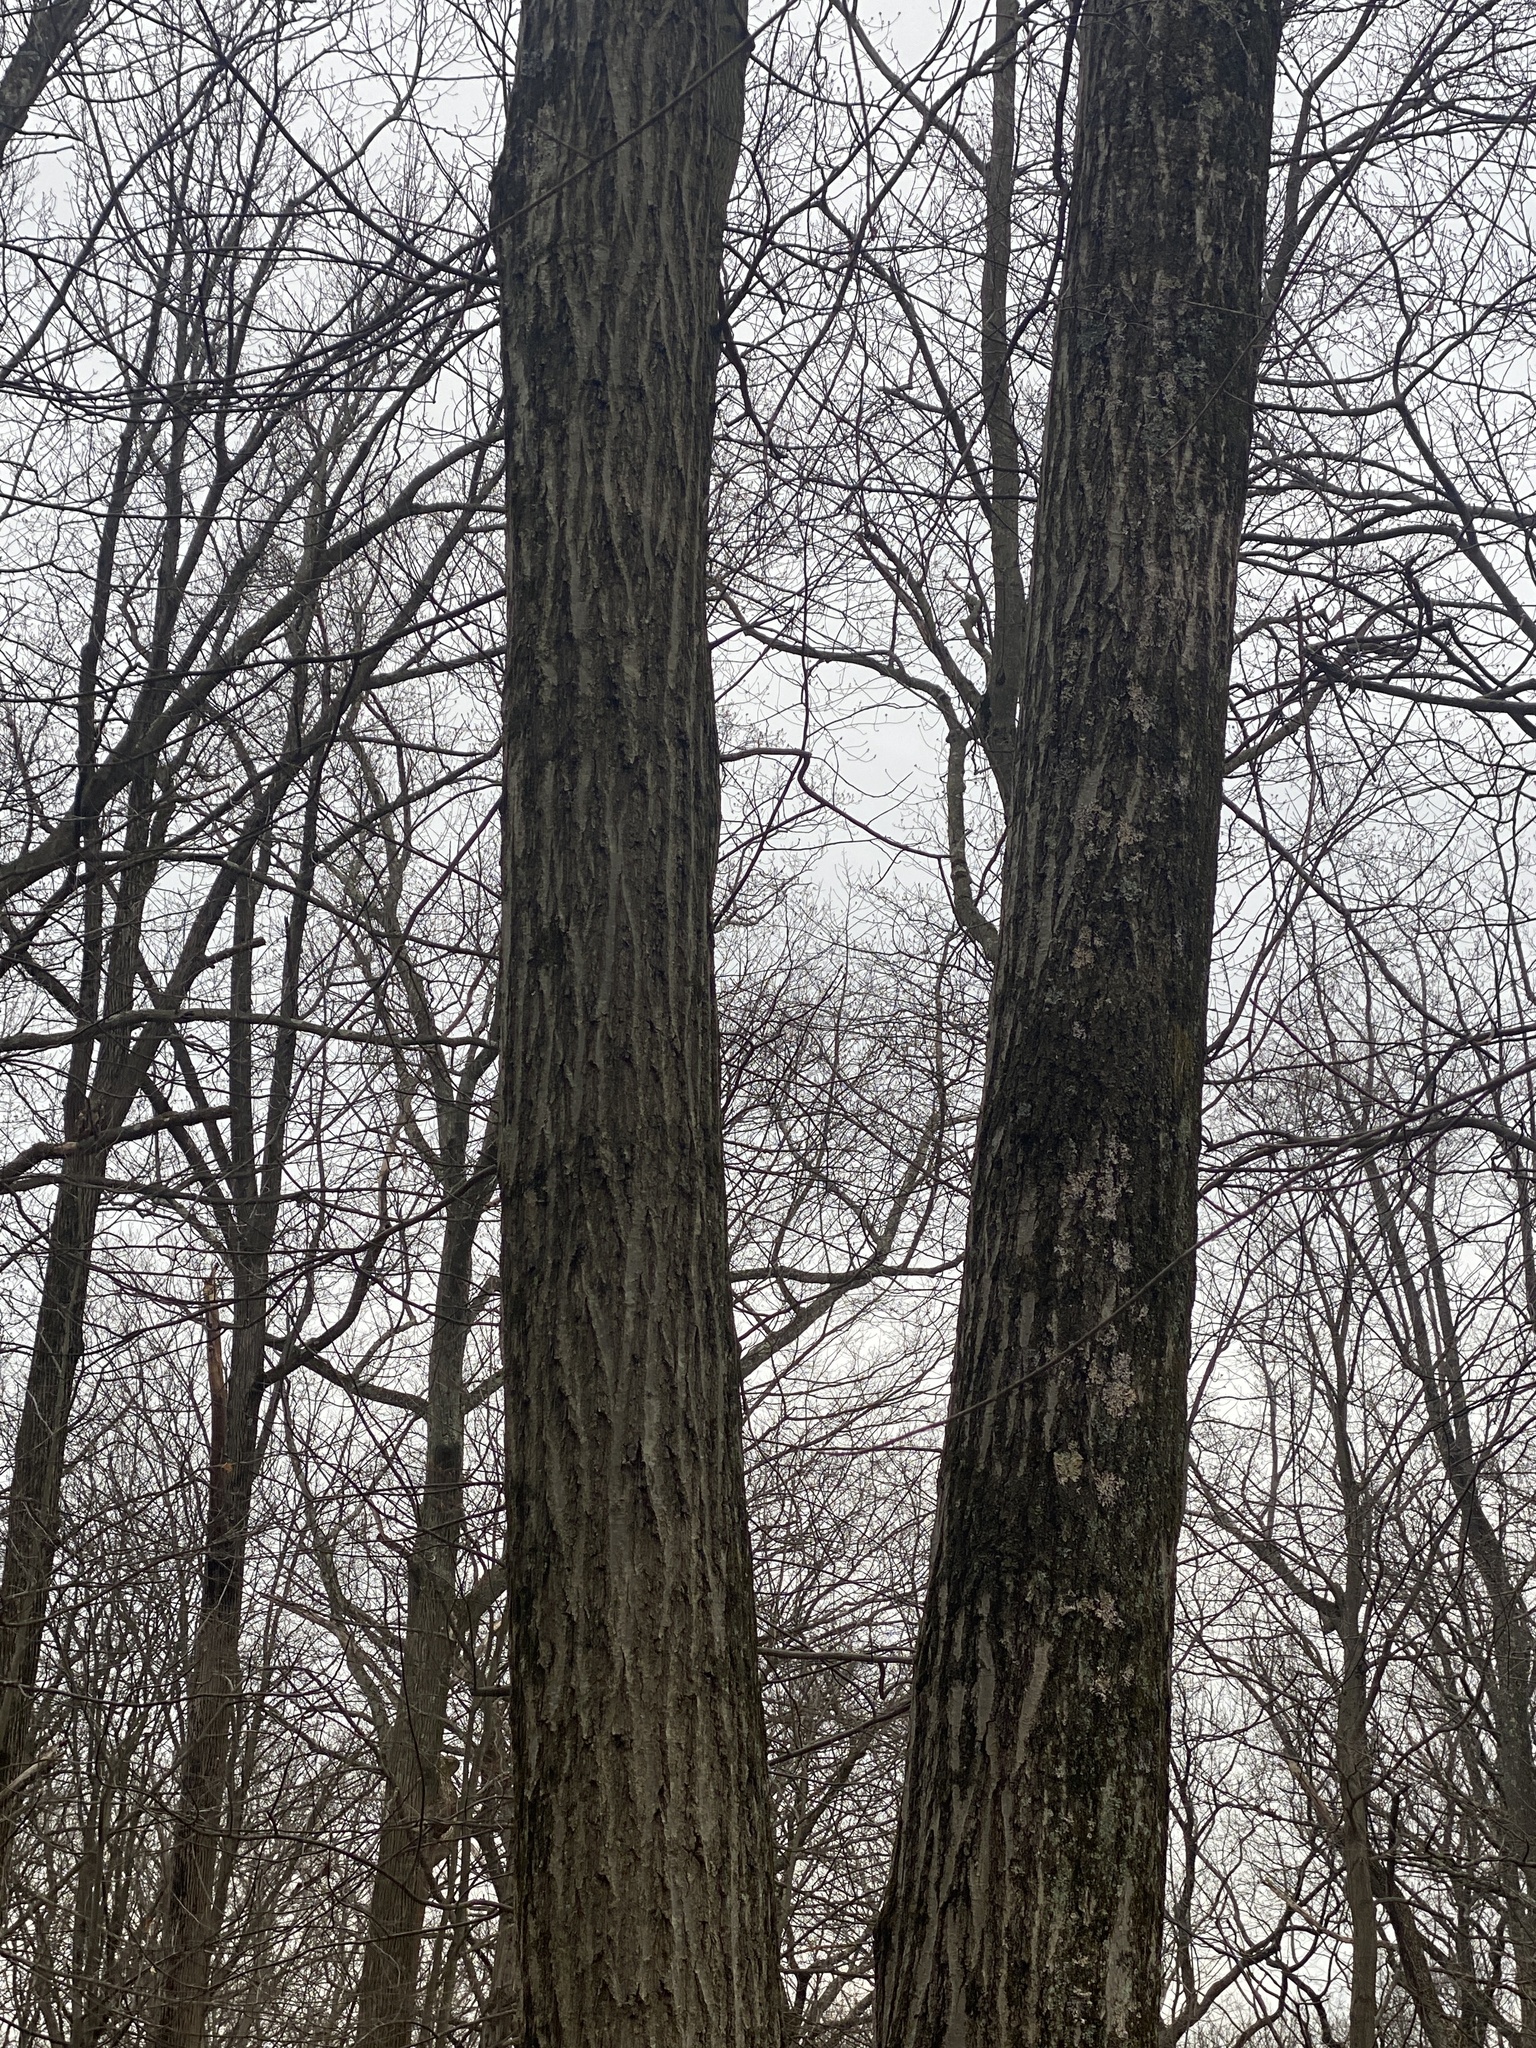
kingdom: Plantae
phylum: Tracheophyta
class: Magnoliopsida
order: Fagales
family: Fagaceae
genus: Quercus
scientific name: Quercus rubra
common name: Red oak
